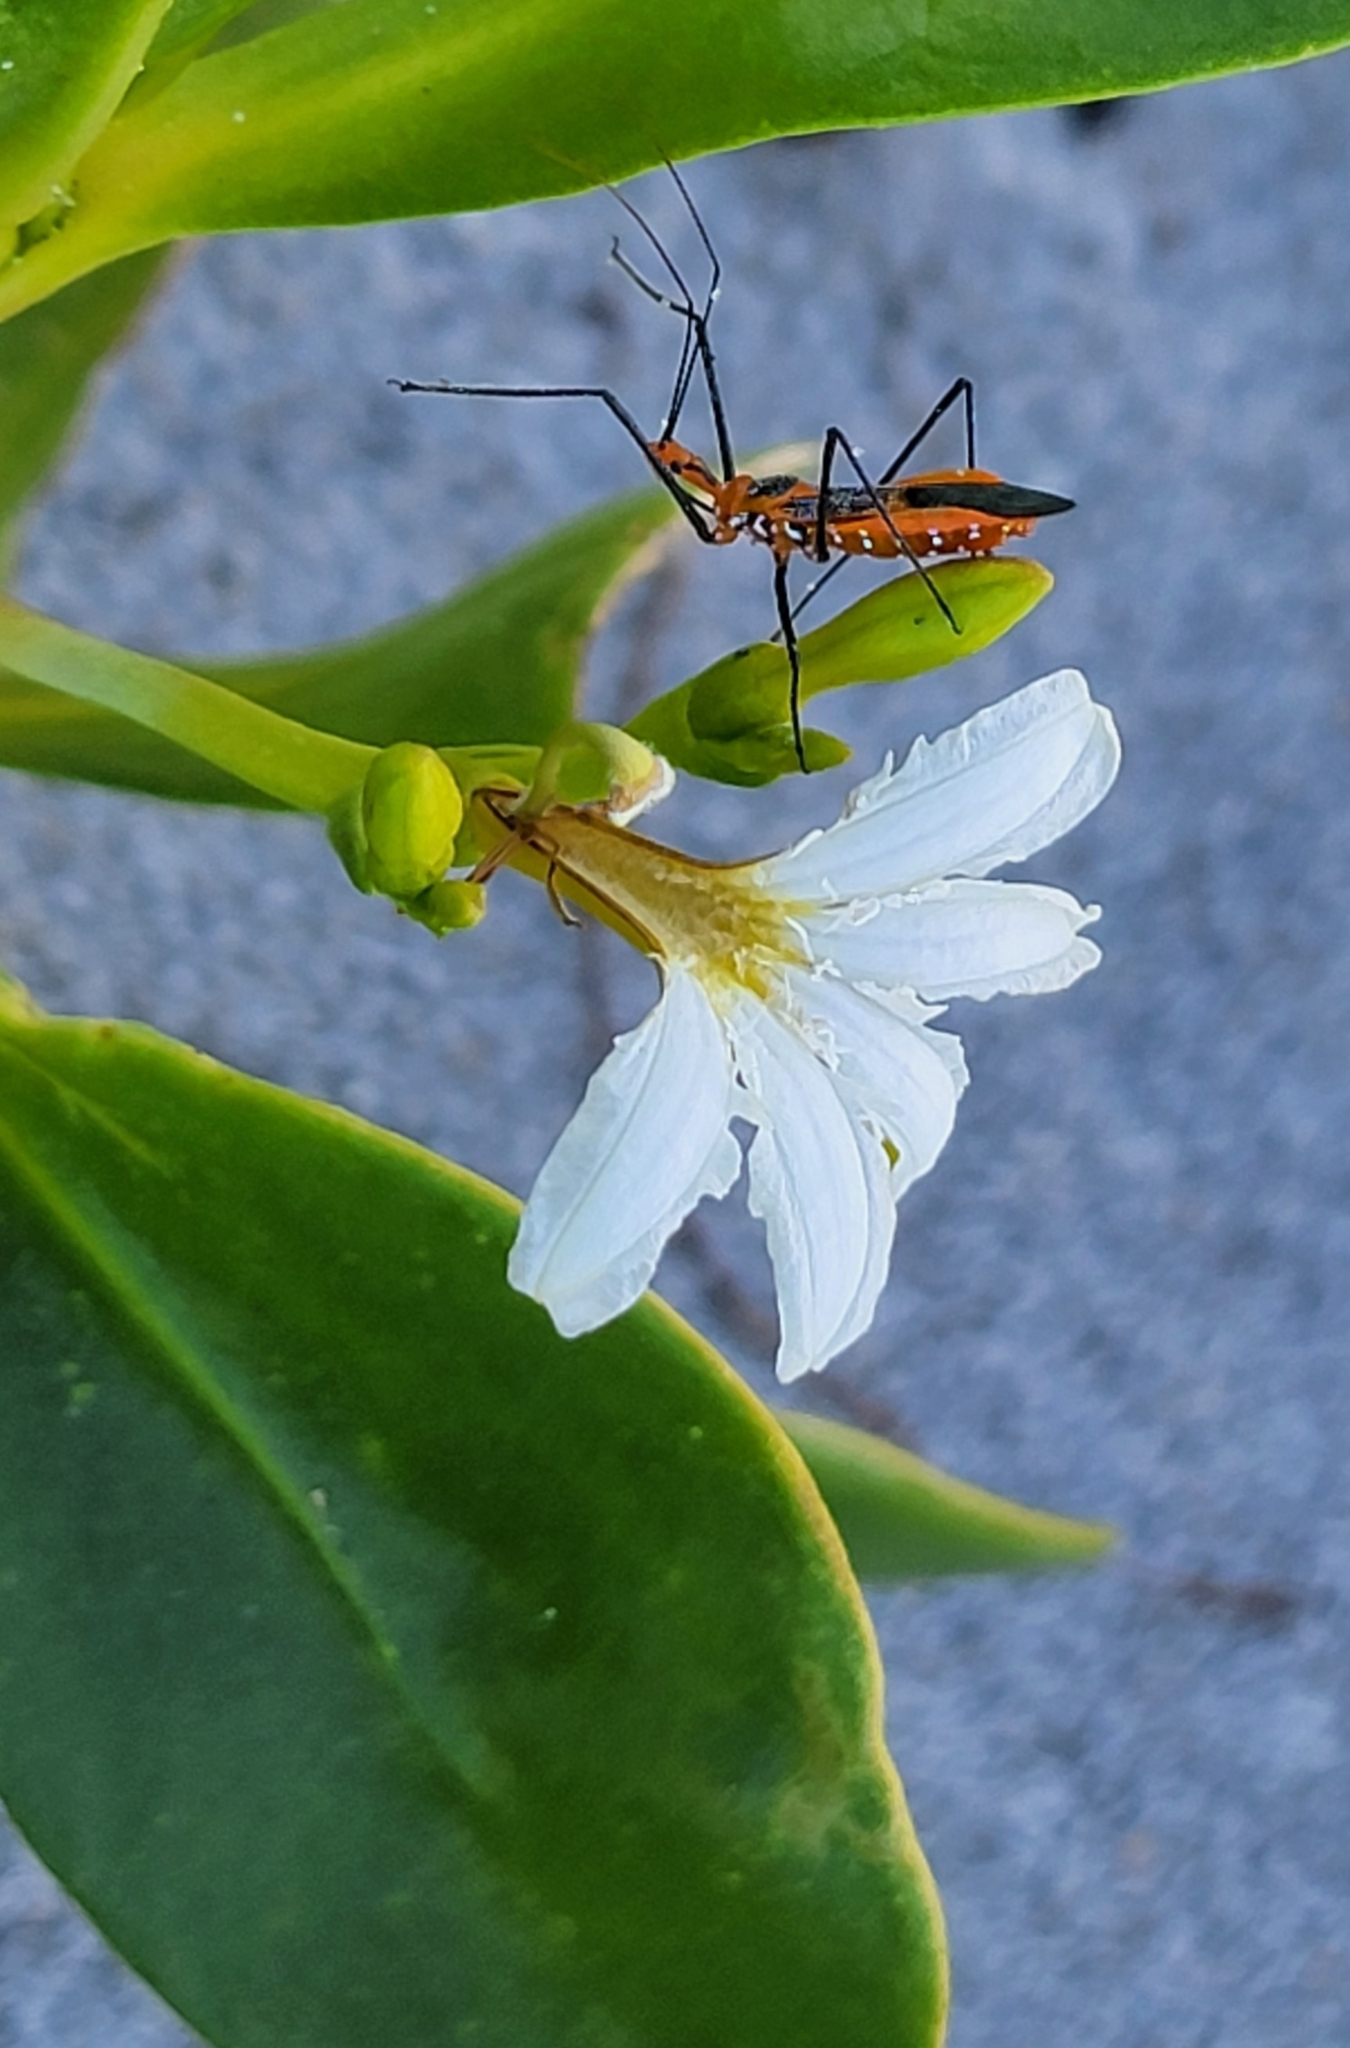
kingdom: Animalia
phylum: Arthropoda
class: Insecta
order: Hemiptera
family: Reduviidae
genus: Zelus
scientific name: Zelus longipes
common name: Milkweed assassin bug
